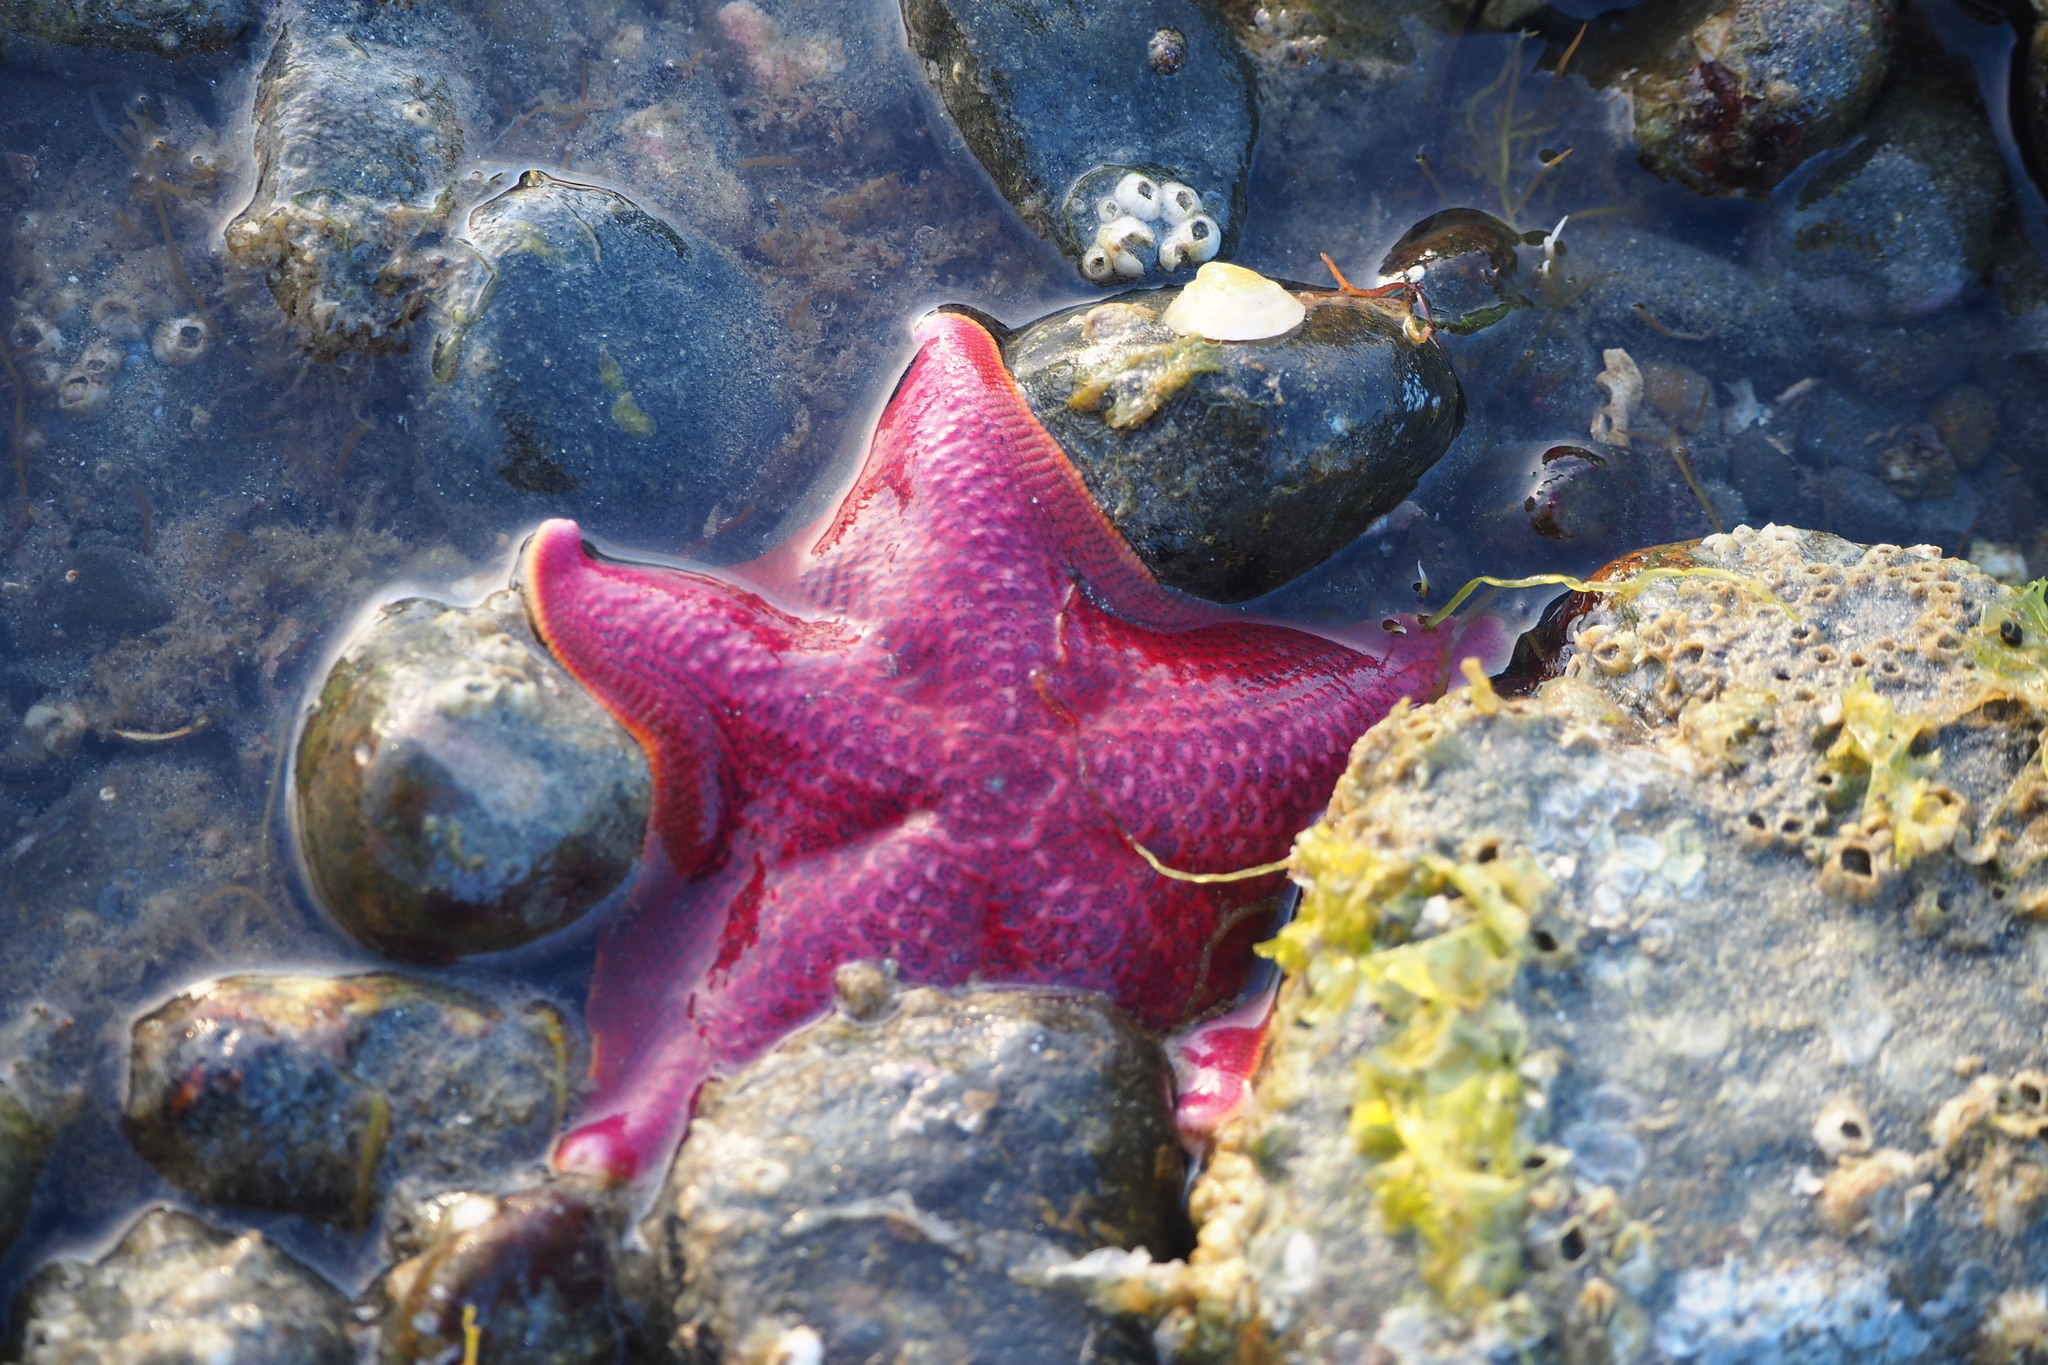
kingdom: Animalia
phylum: Echinodermata
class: Asteroidea
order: Valvatida
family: Asterinidae
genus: Patiria
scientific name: Patiria miniata
